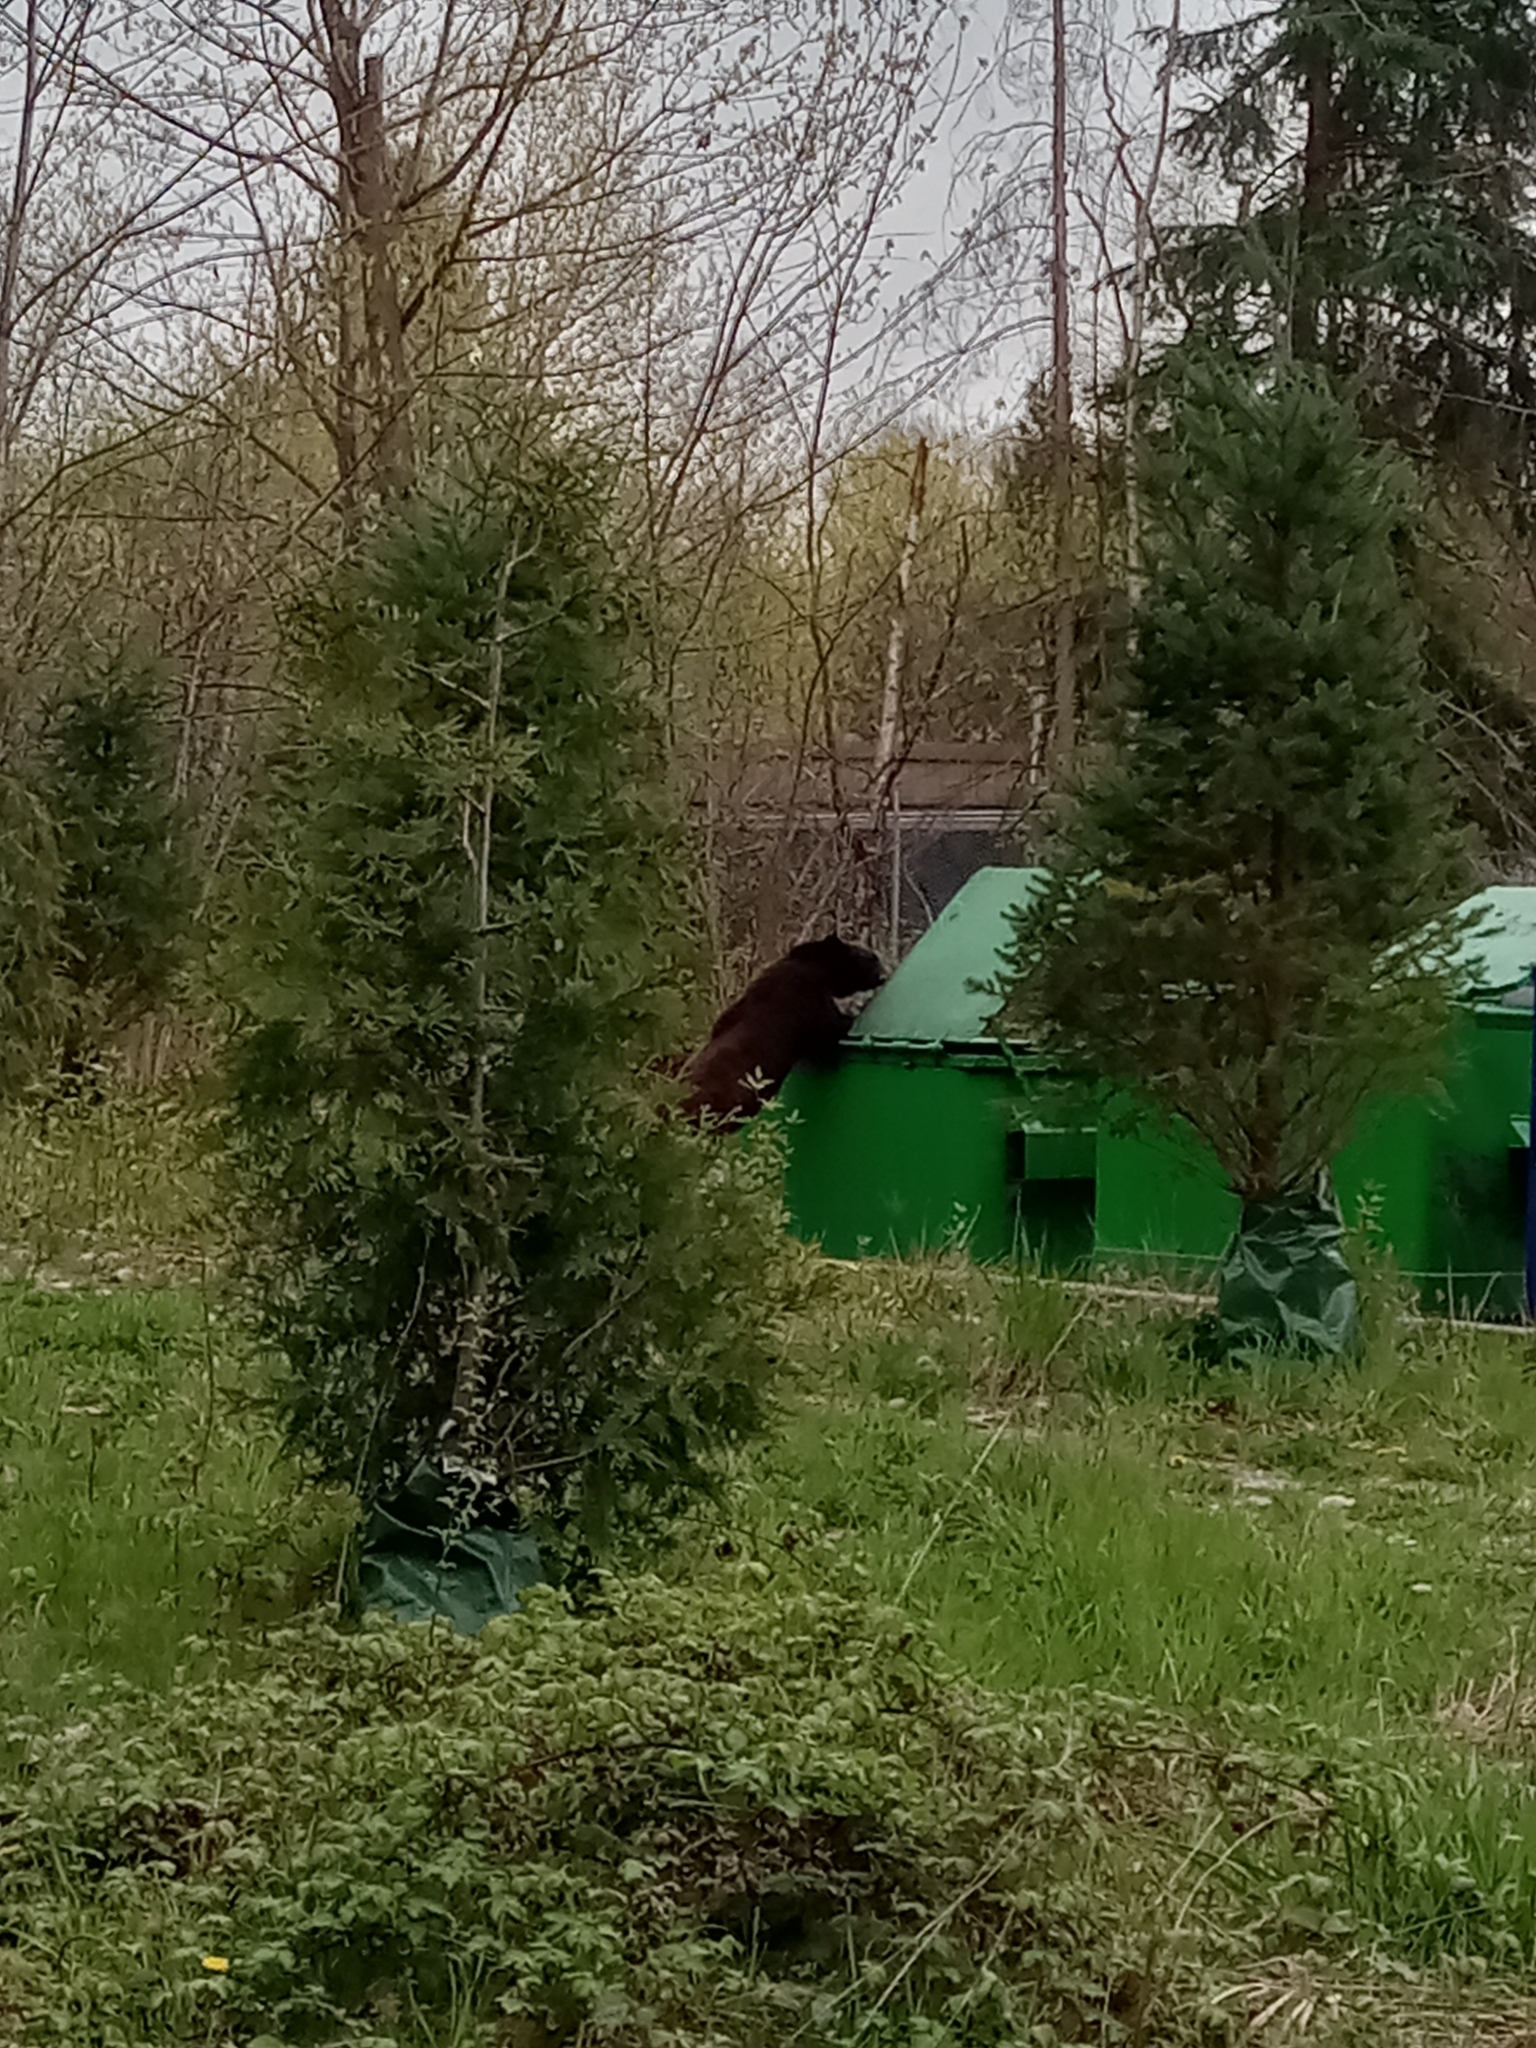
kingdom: Animalia
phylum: Chordata
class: Mammalia
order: Carnivora
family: Ursidae
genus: Ursus
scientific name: Ursus americanus
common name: American black bear
